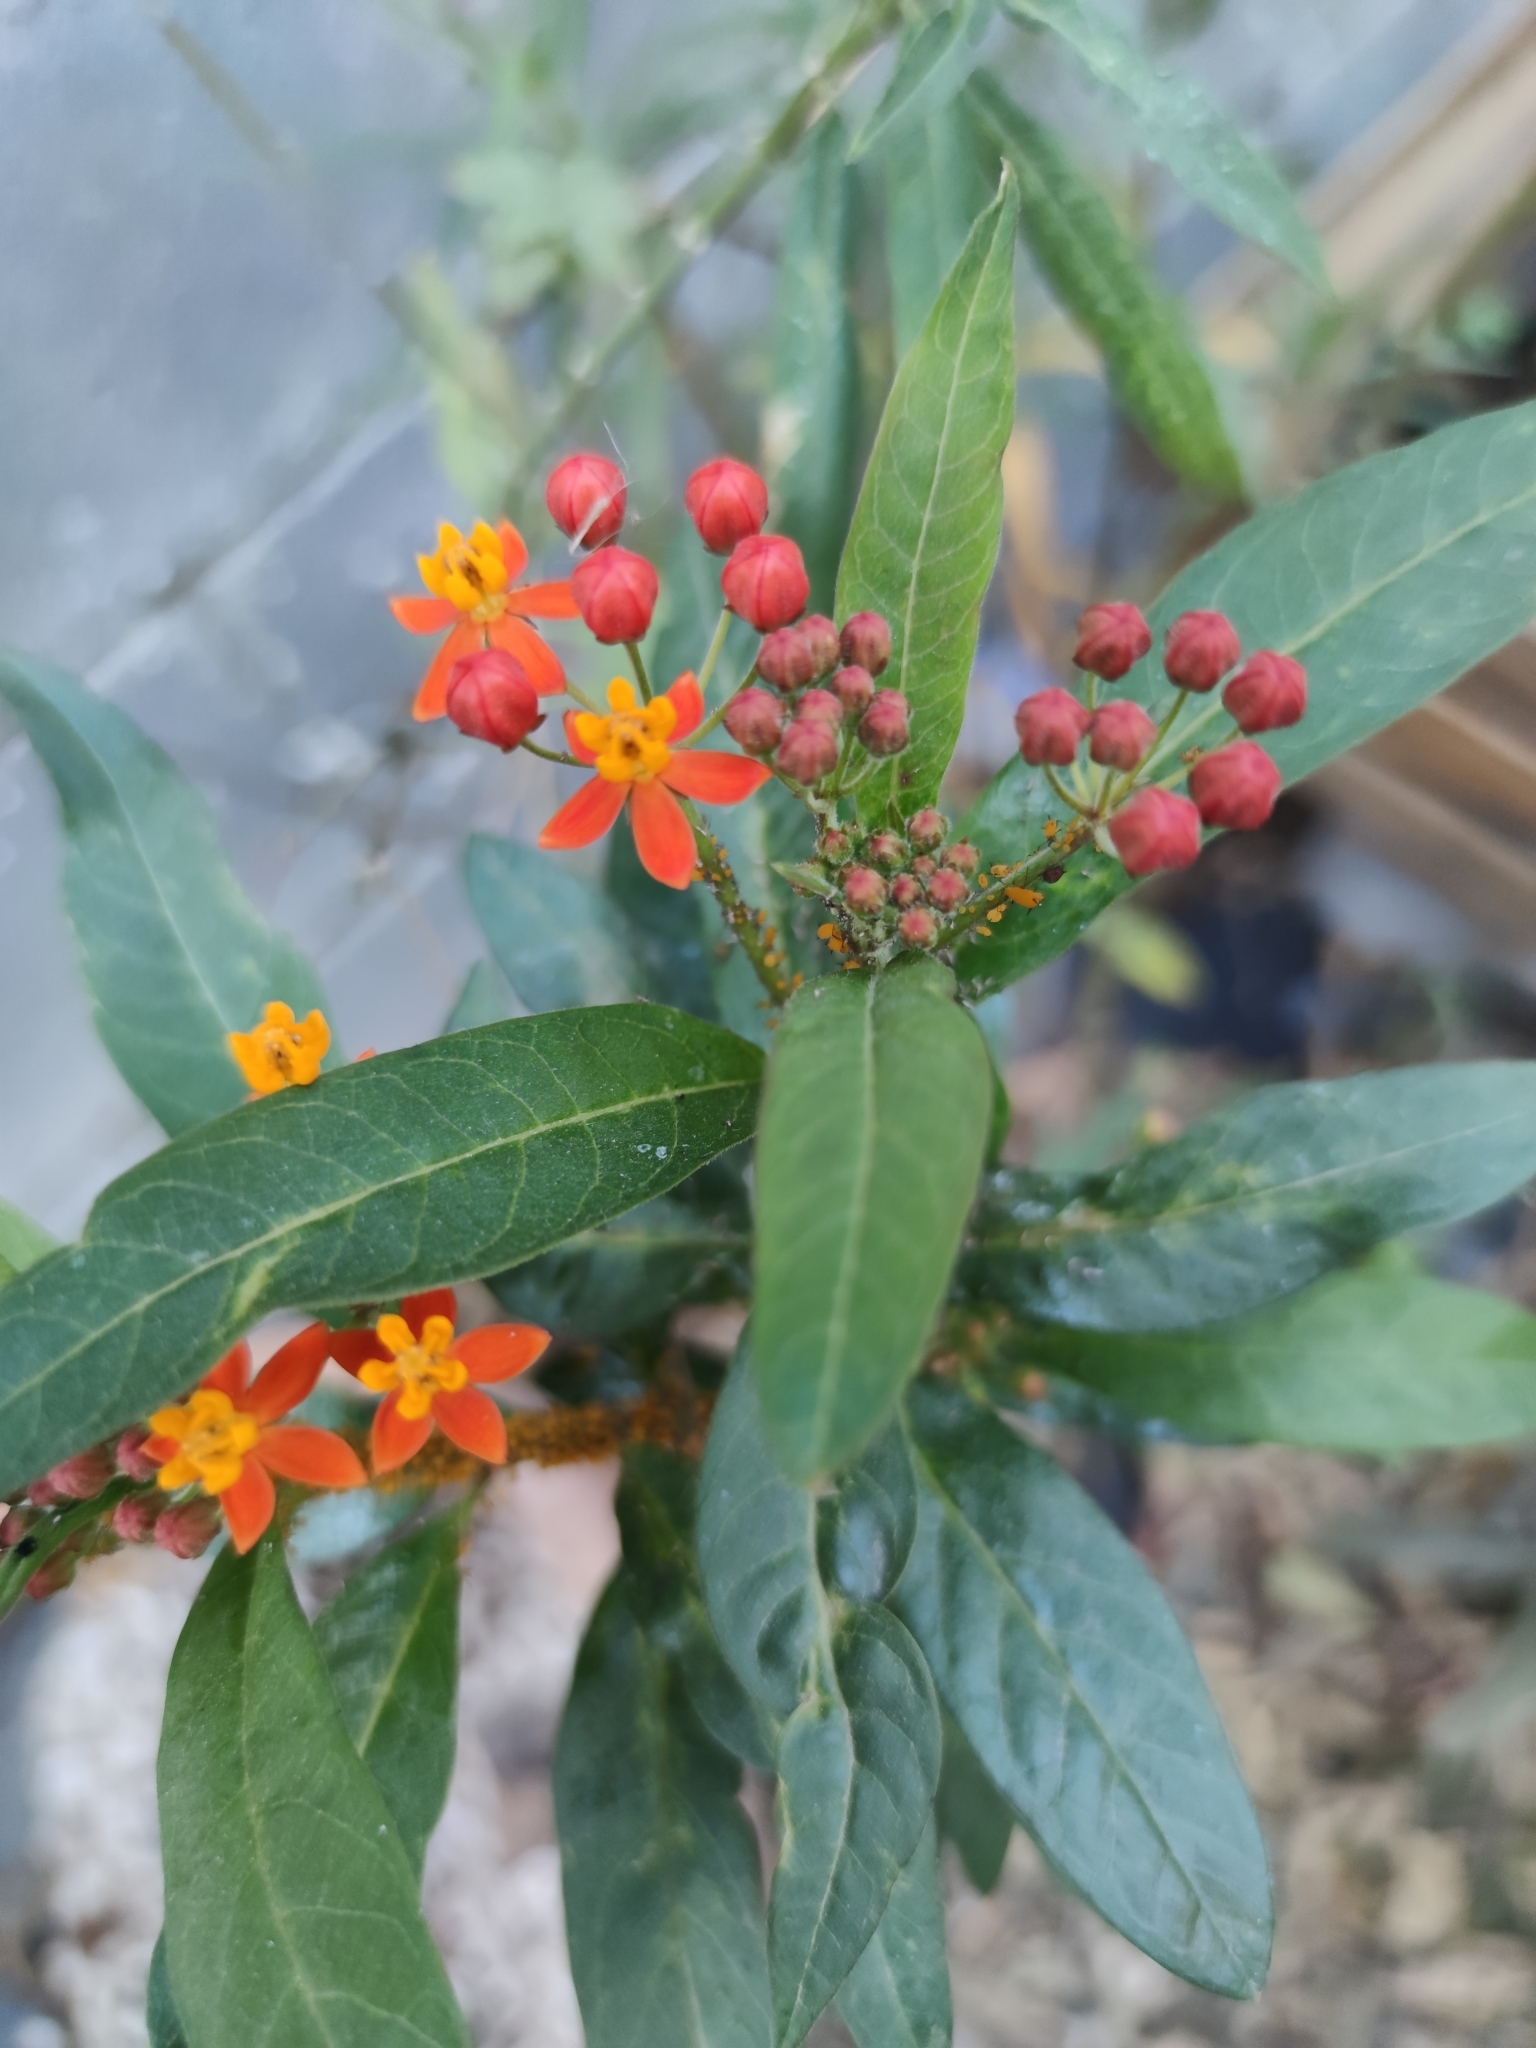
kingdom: Plantae
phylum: Tracheophyta
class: Magnoliopsida
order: Gentianales
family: Apocynaceae
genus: Asclepias
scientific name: Asclepias curassavica
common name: Bloodflower
